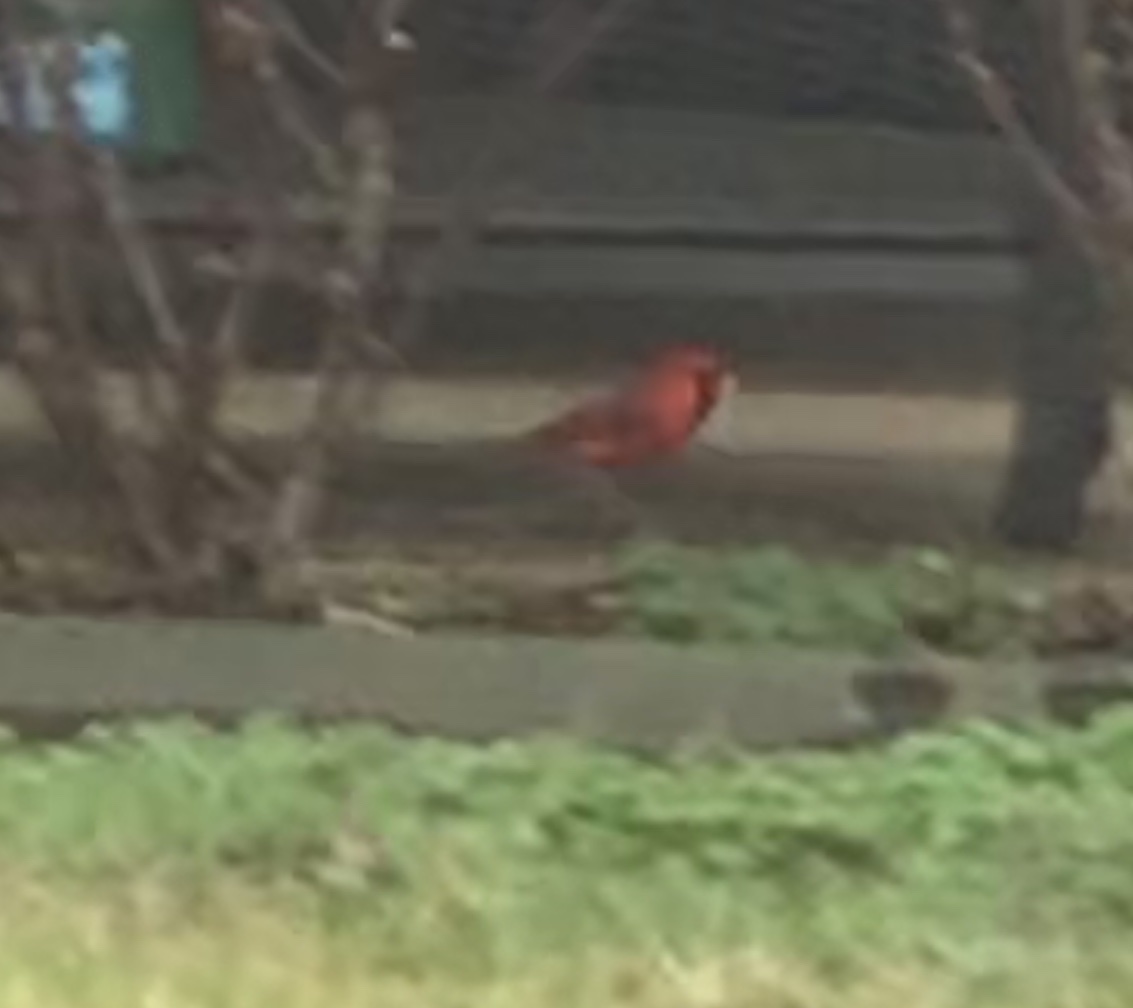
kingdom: Animalia
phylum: Chordata
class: Aves
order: Passeriformes
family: Cardinalidae
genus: Cardinalis
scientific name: Cardinalis cardinalis
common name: Northern cardinal
